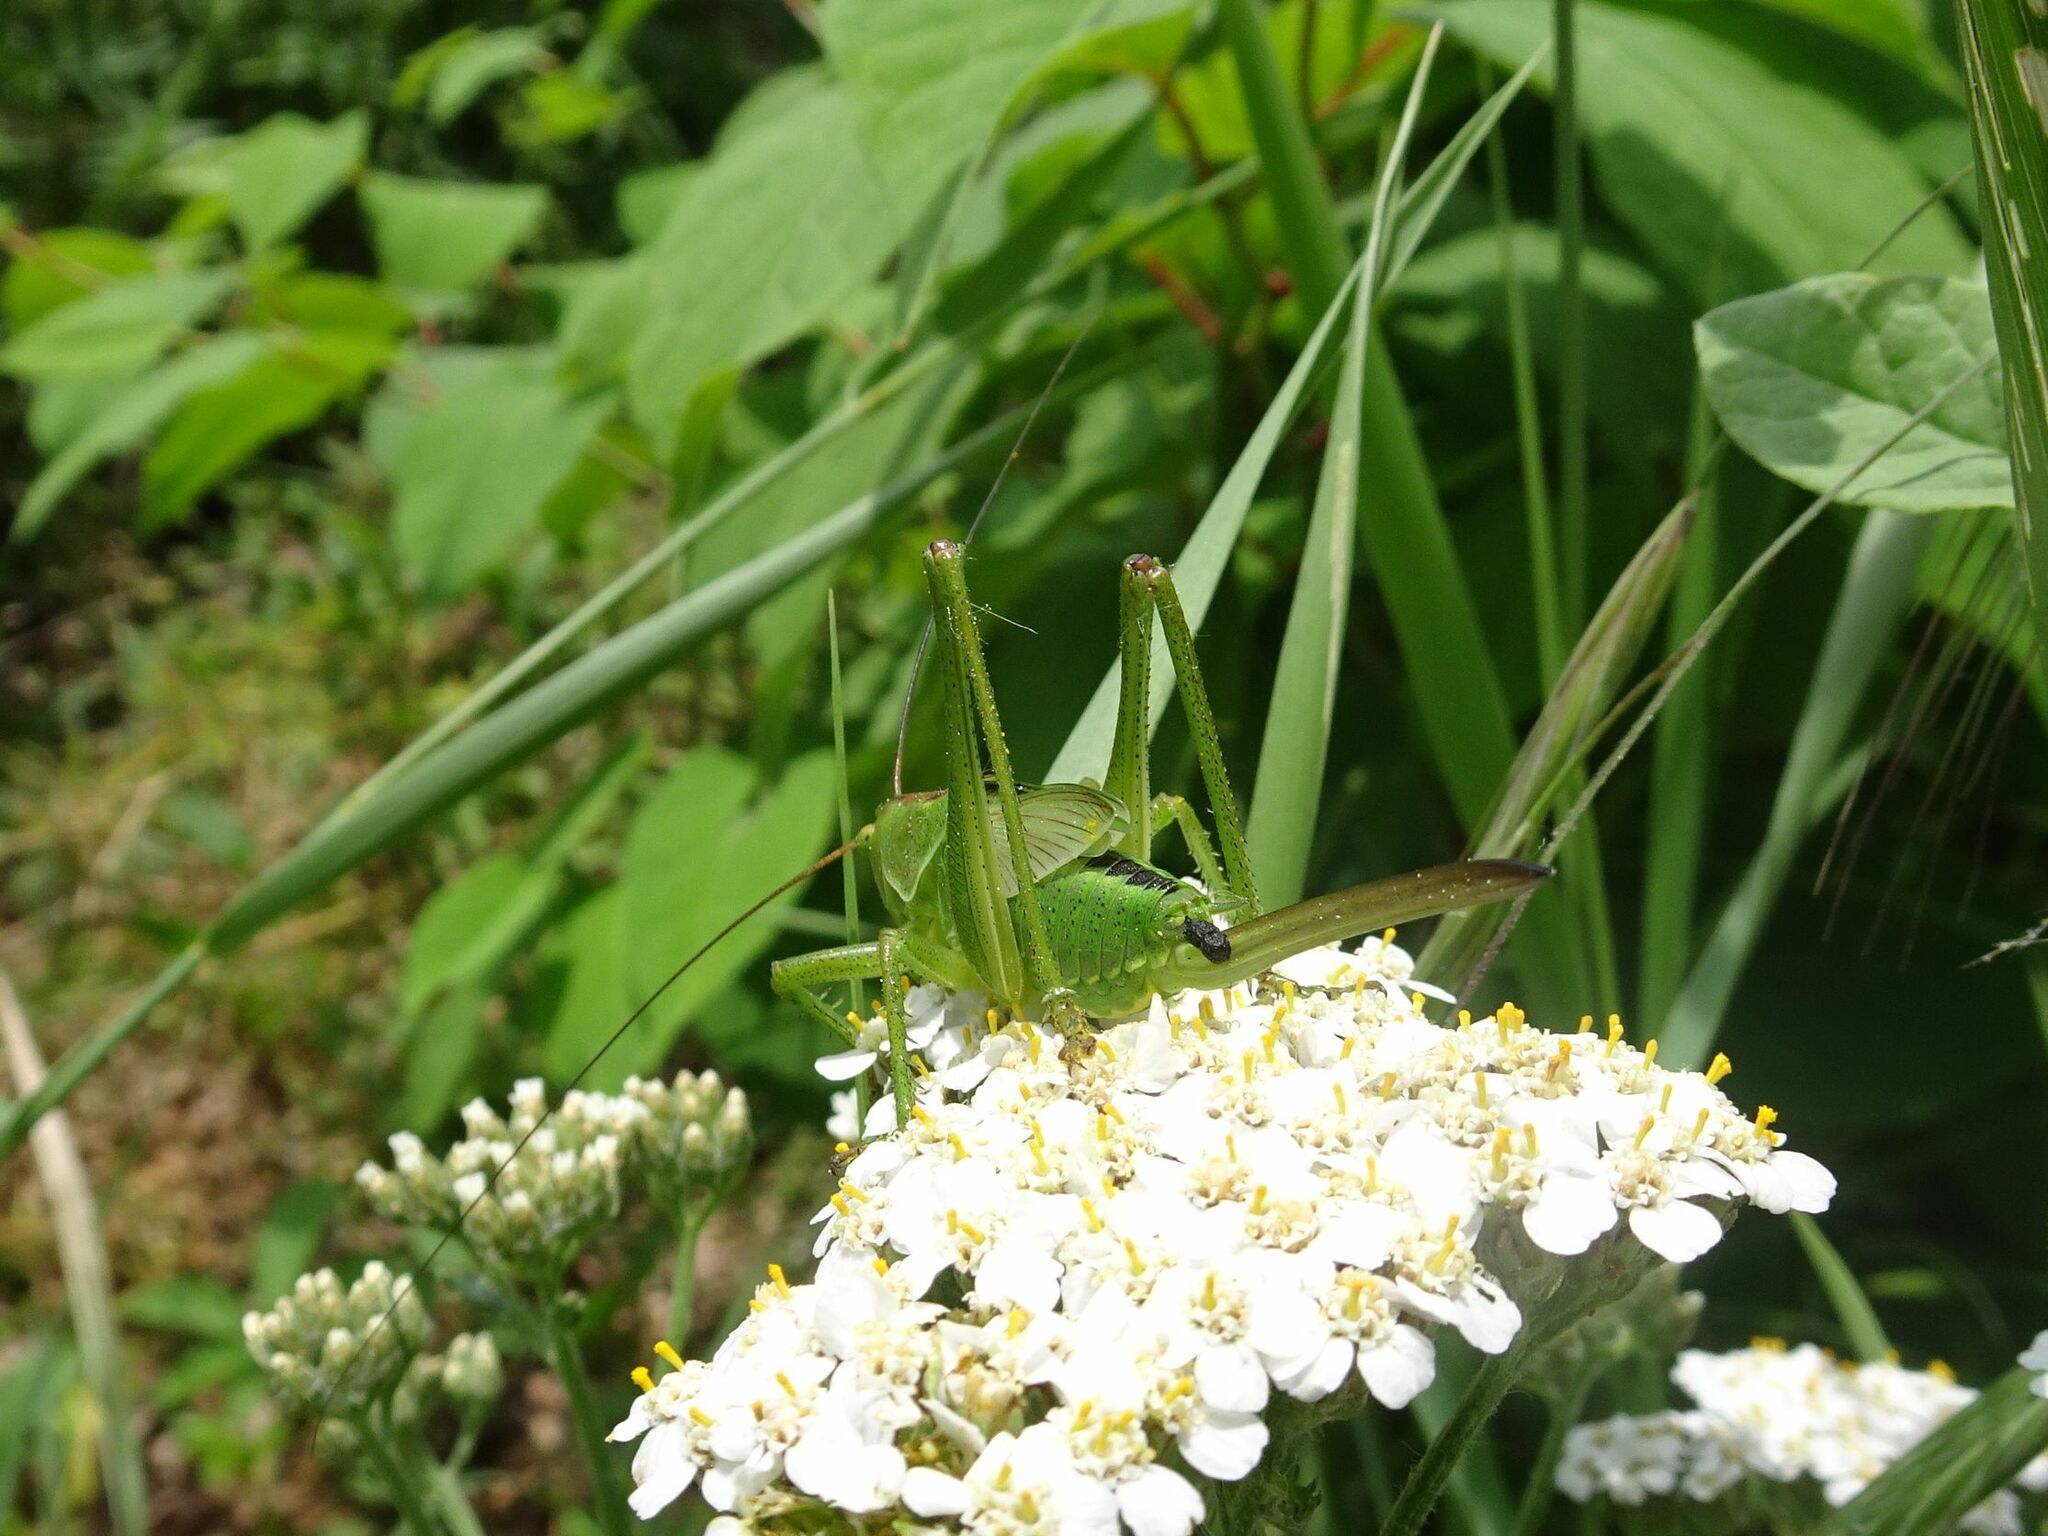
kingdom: Animalia
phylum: Arthropoda
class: Insecta
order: Orthoptera
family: Tettigoniidae
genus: Tettigonia
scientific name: Tettigonia viridissima
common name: Great green bush-cricket
